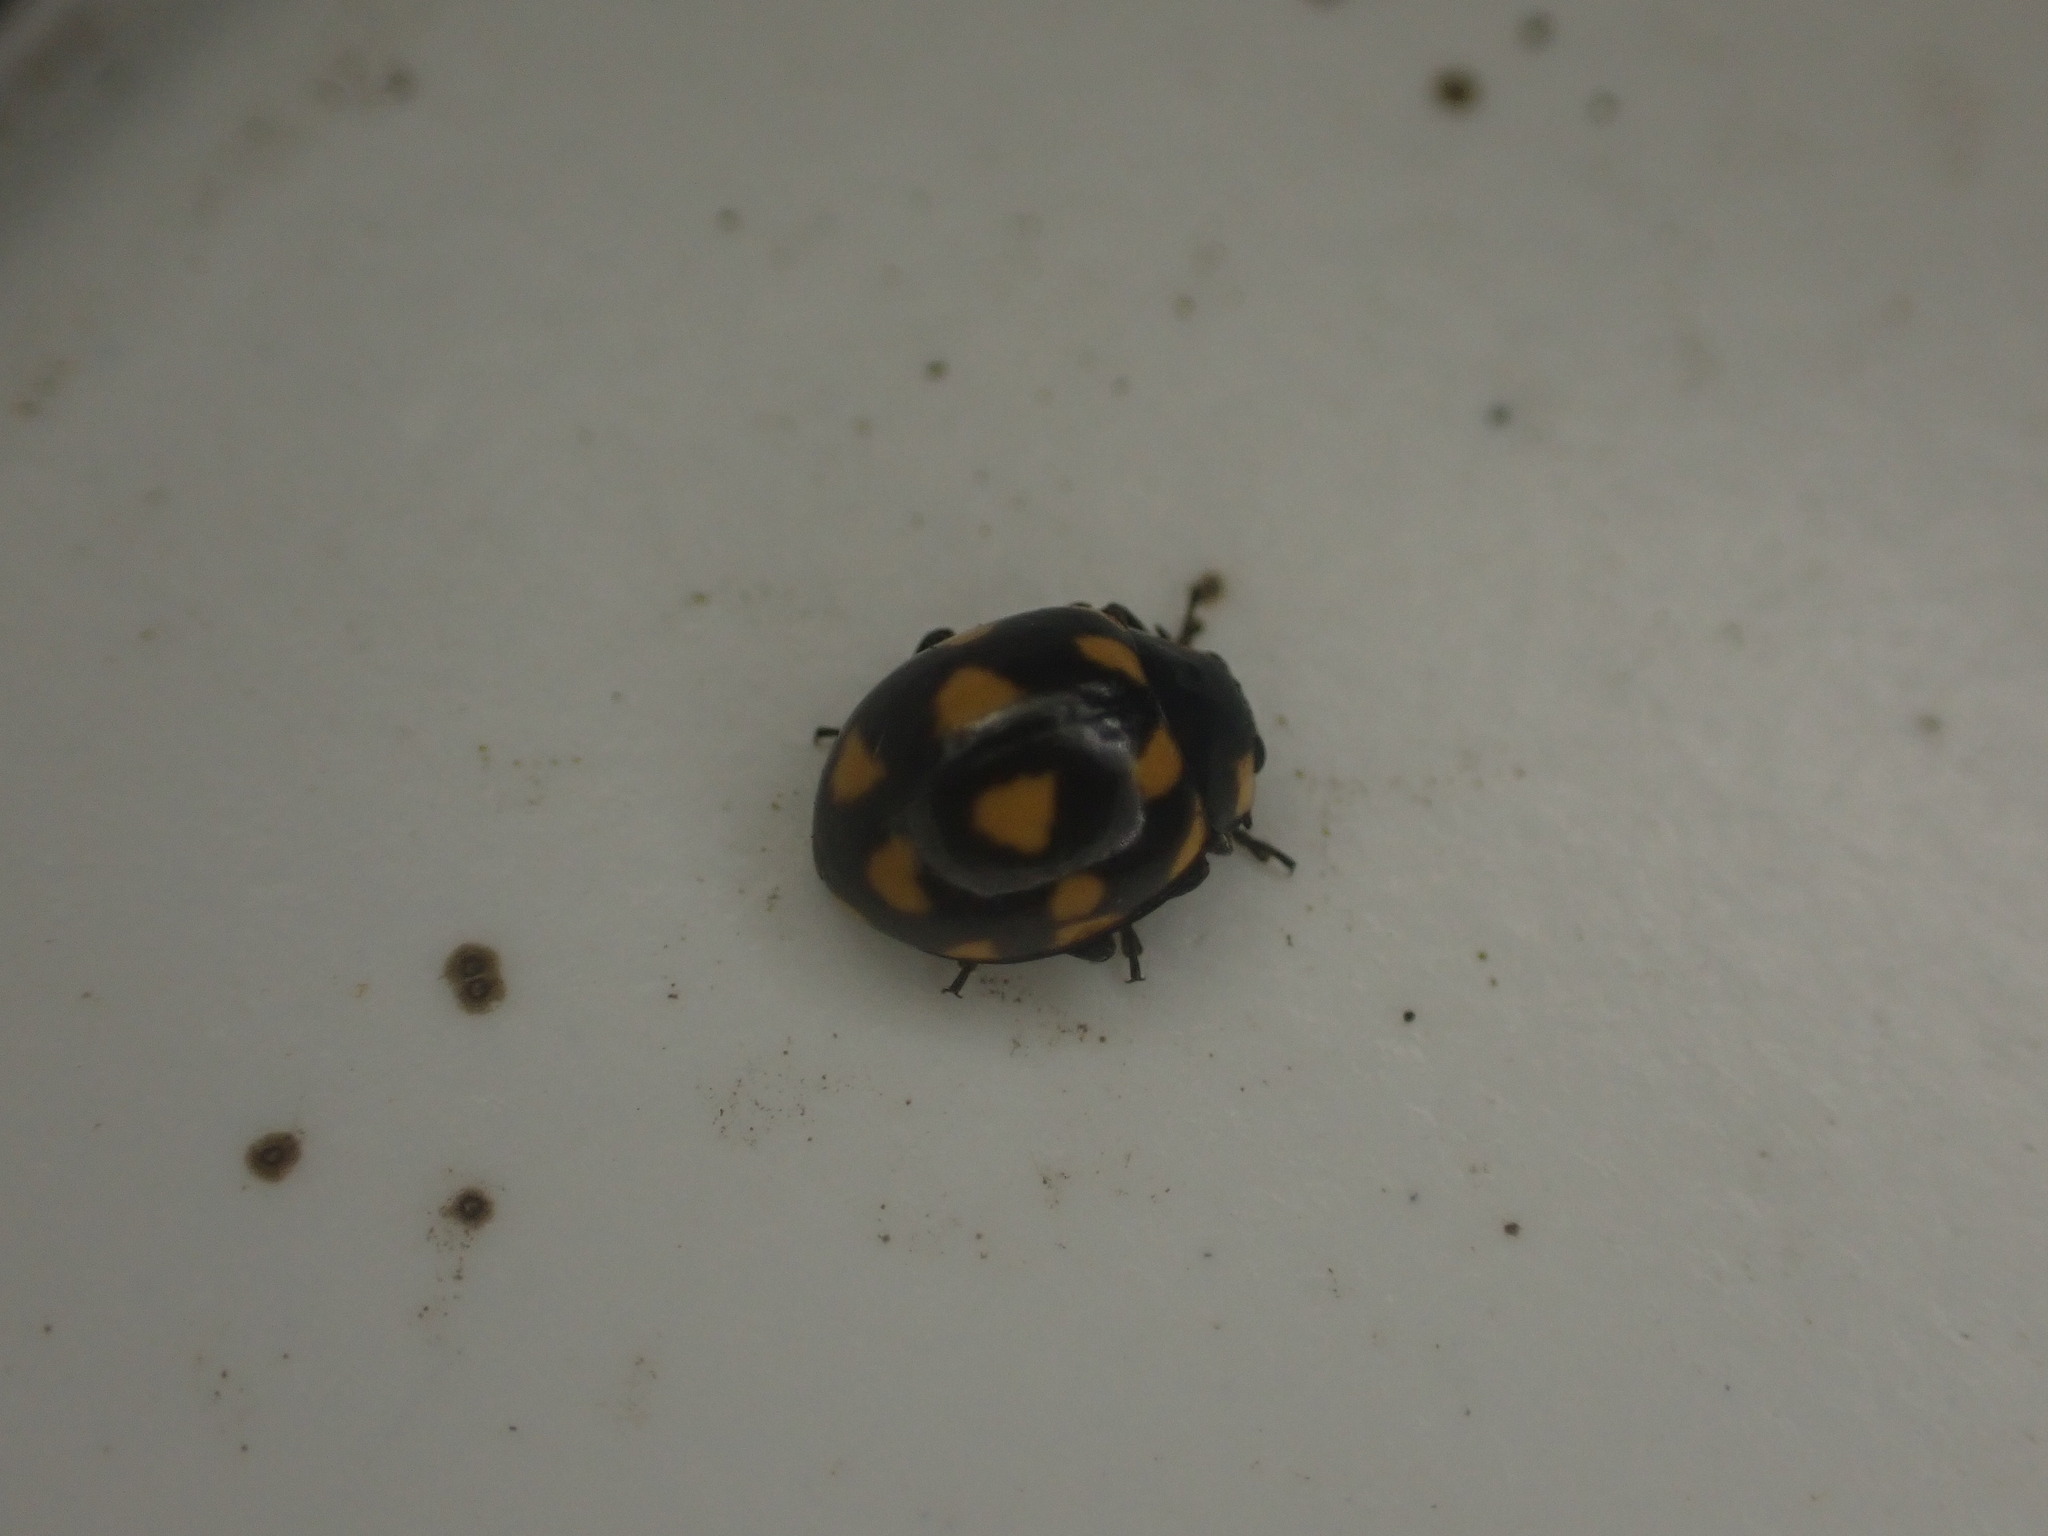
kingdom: Animalia
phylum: Arthropoda
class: Insecta
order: Coleoptera
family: Coccinellidae
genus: Coccinella
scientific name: Coccinella leonina
